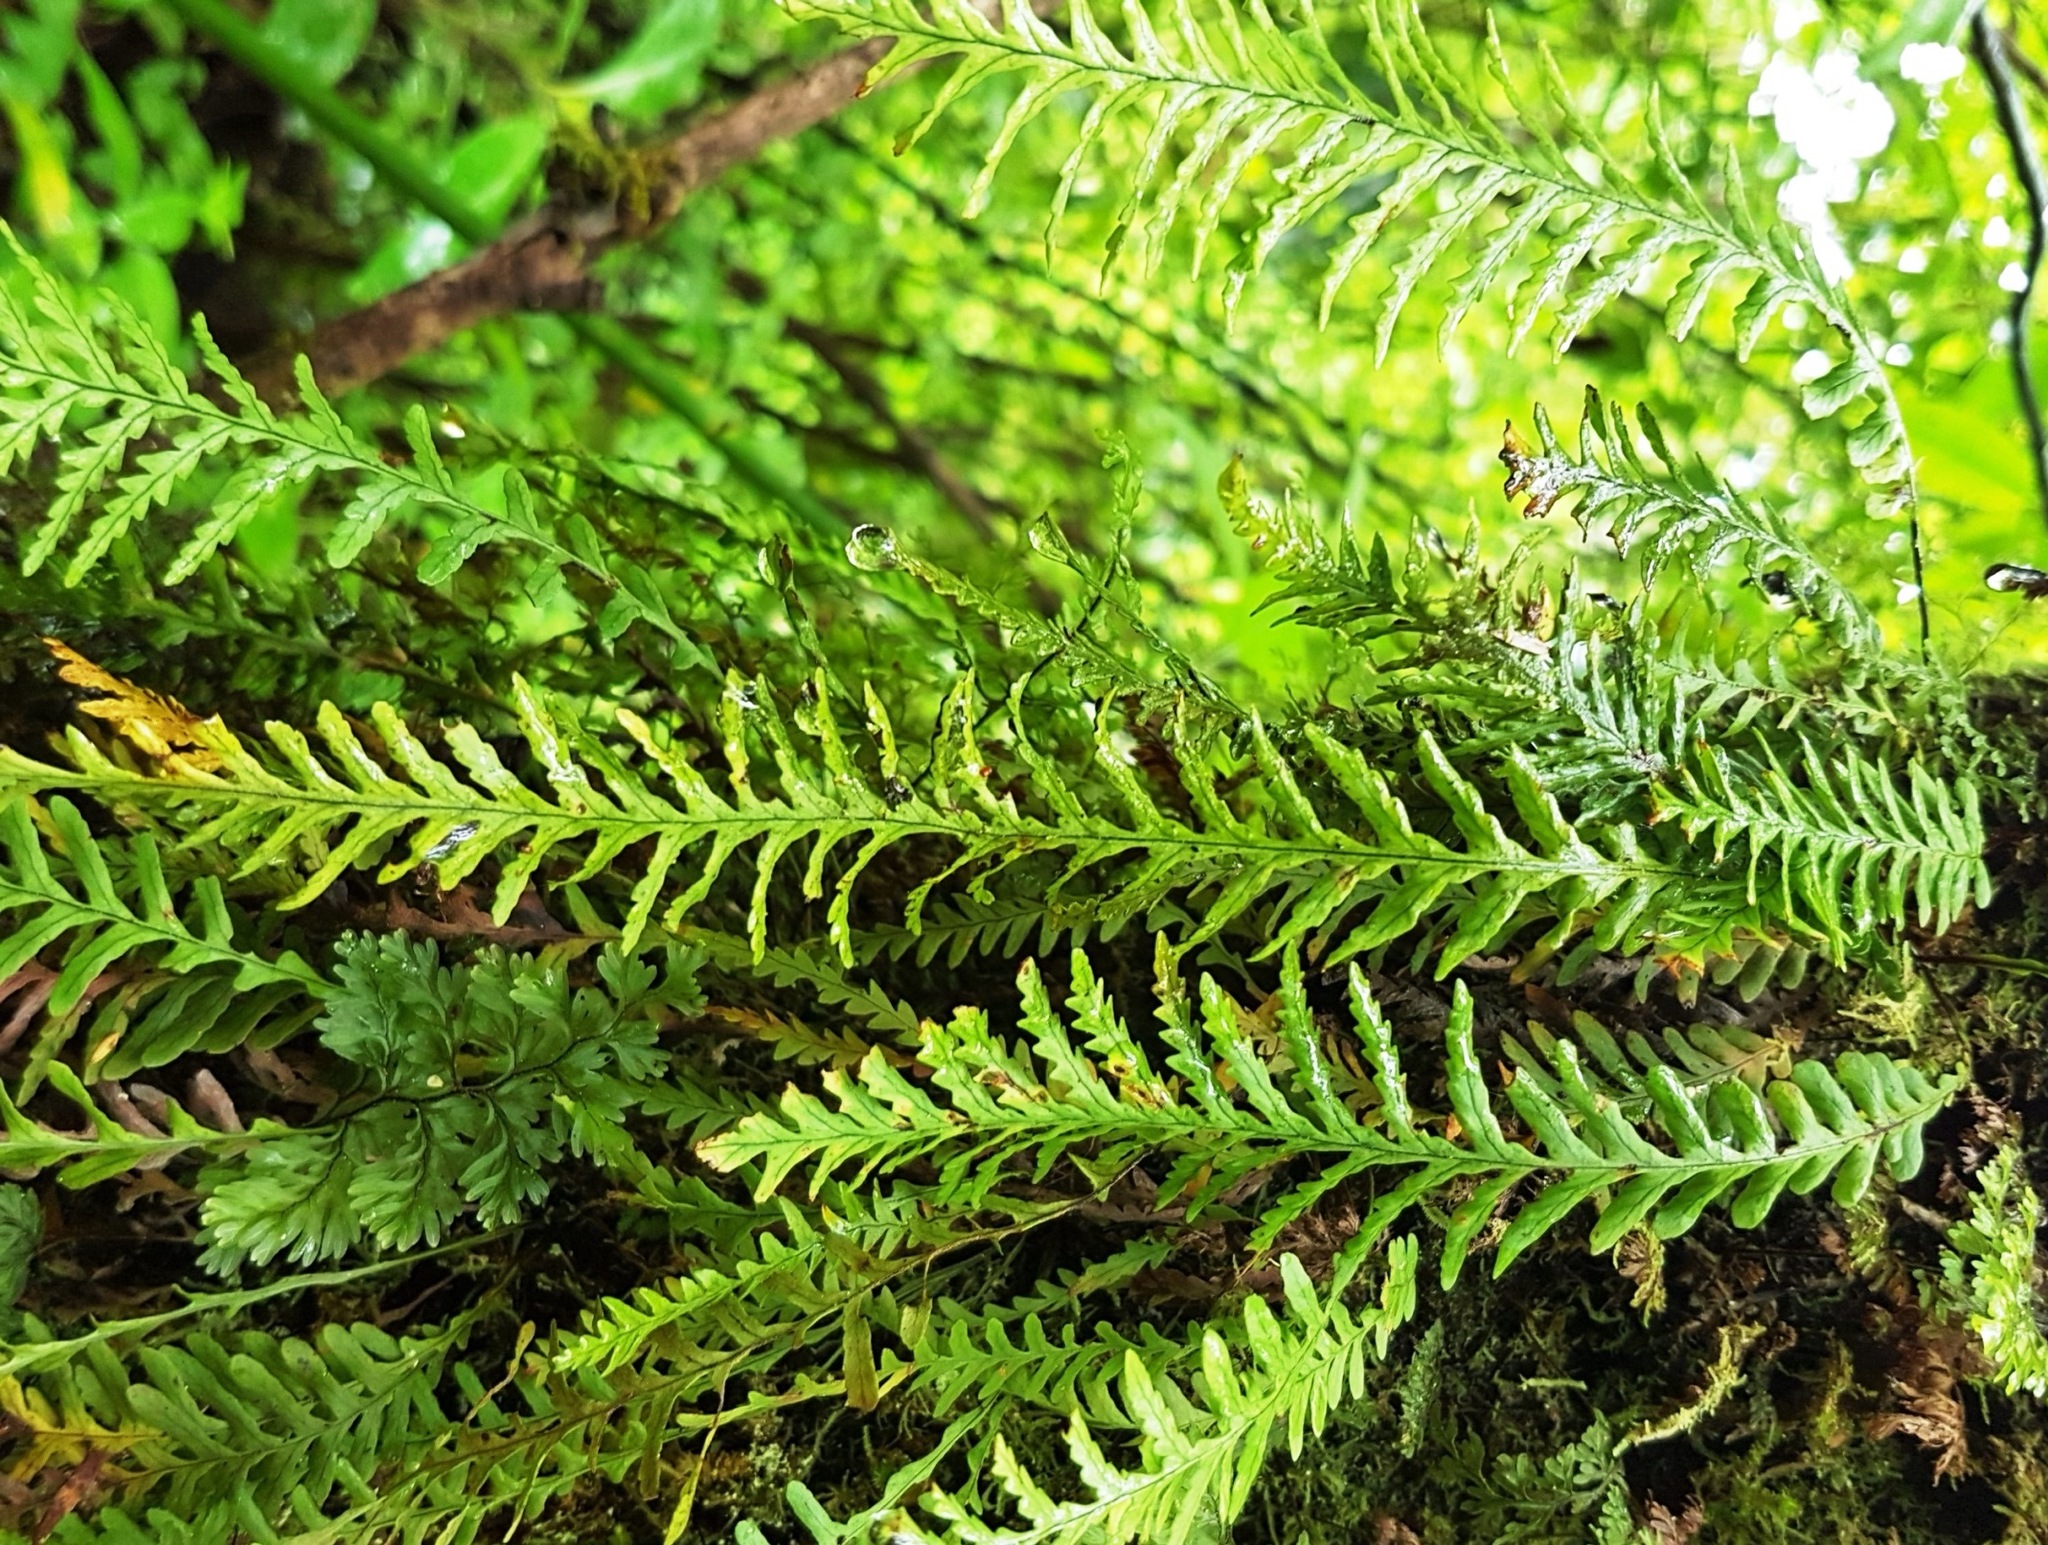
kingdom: Plantae
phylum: Tracheophyta
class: Polypodiopsida
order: Polypodiales
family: Polypodiaceae
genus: Notogrammitis
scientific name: Notogrammitis heterophylla
